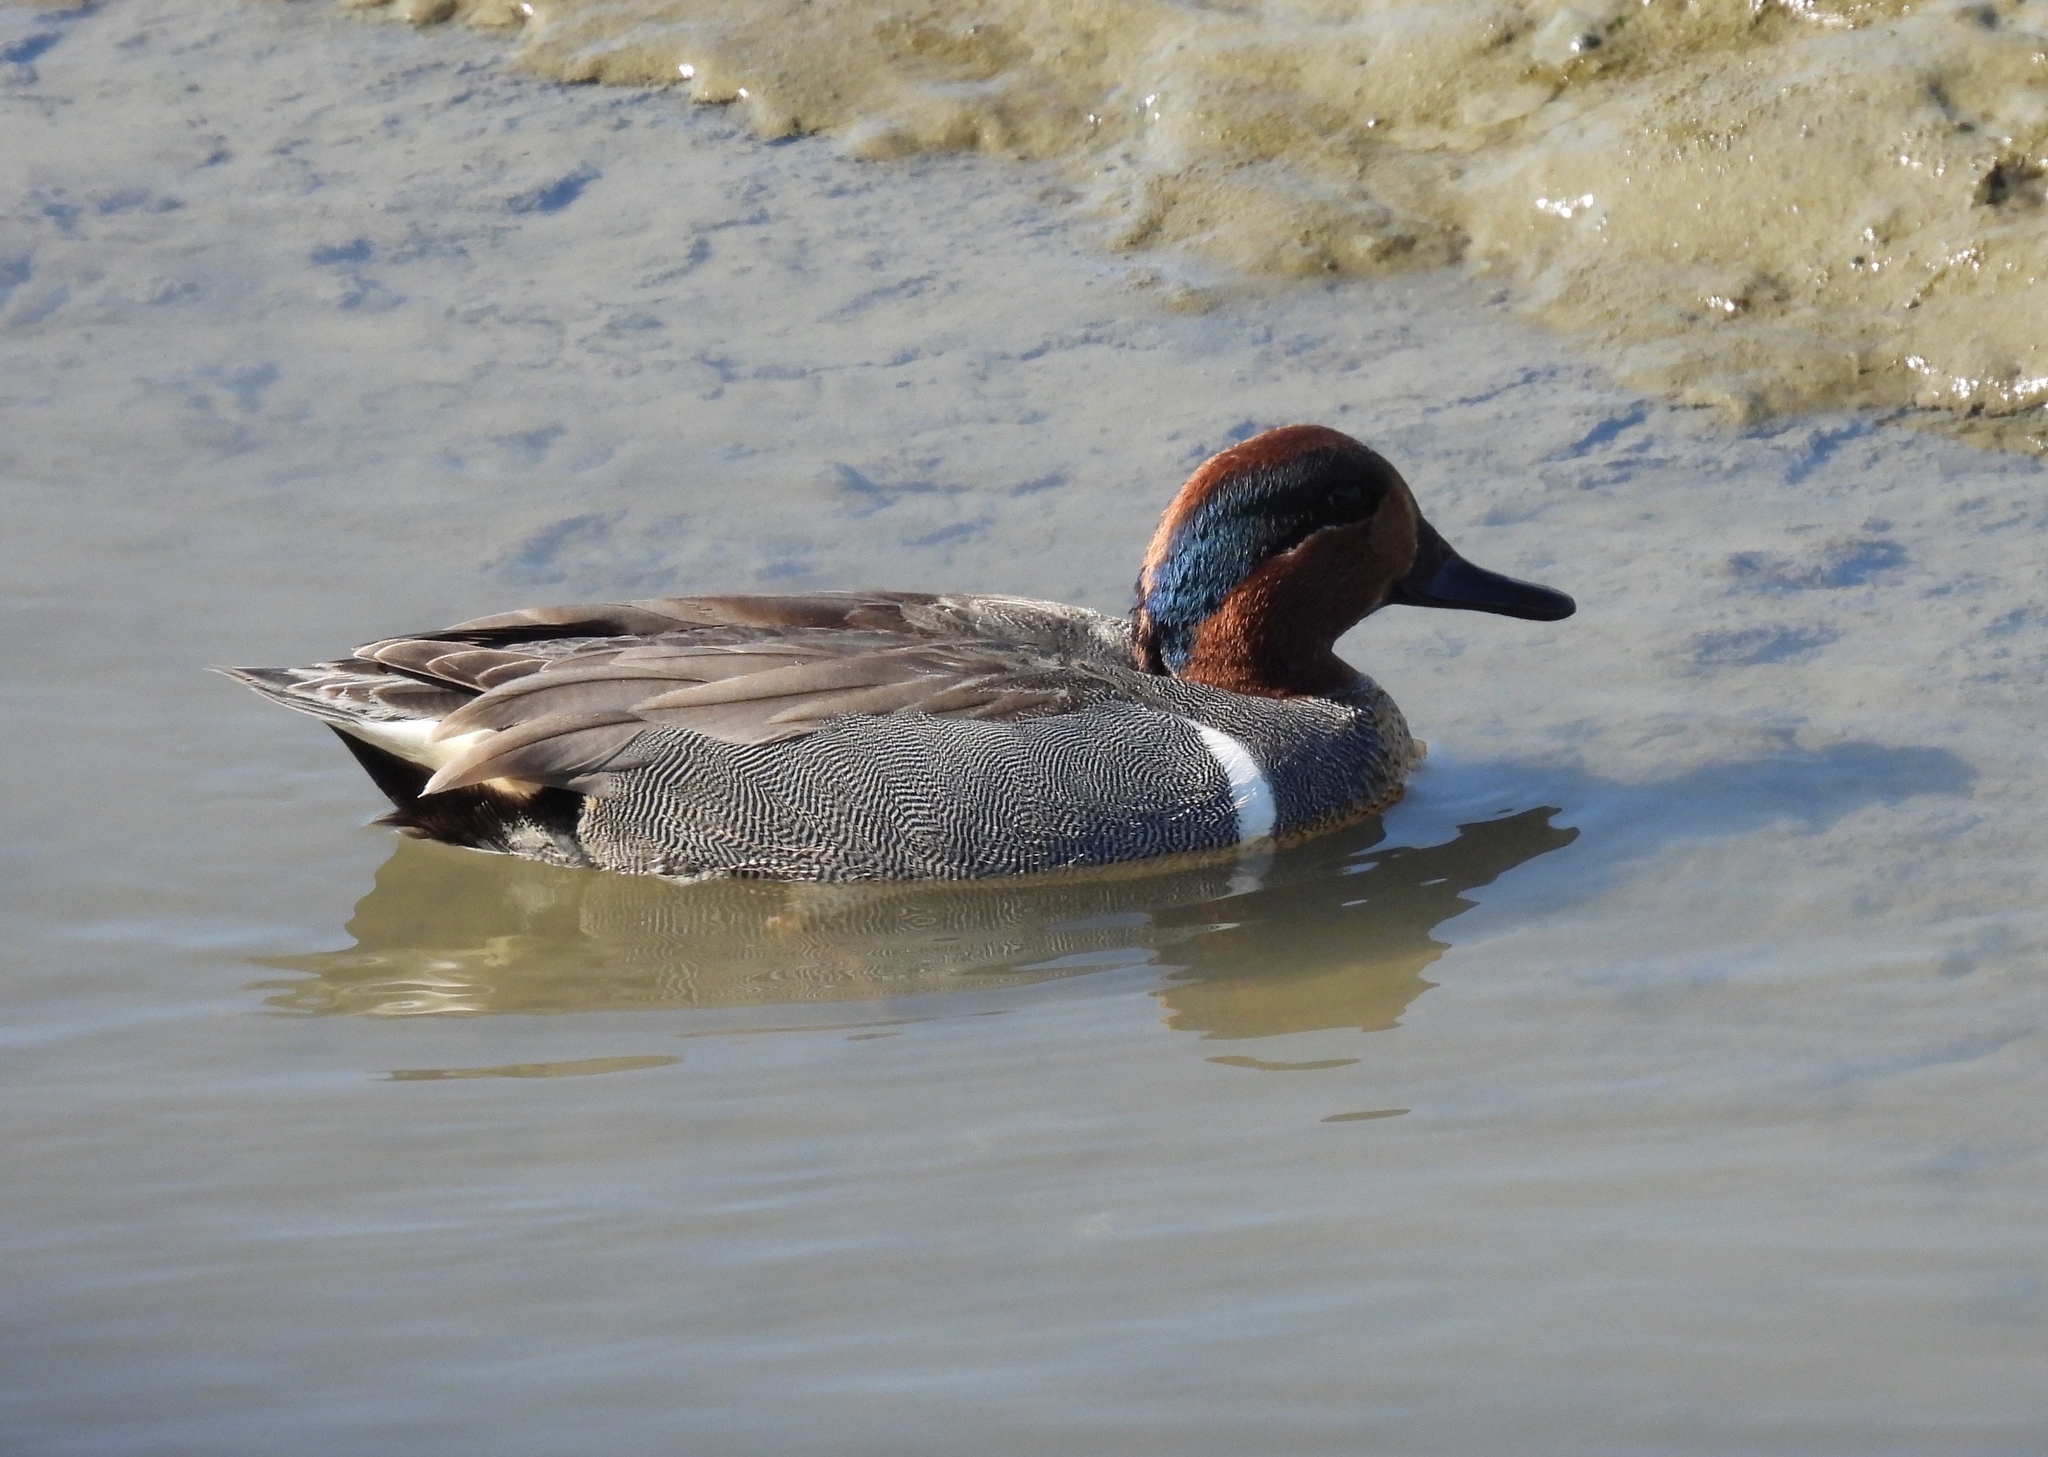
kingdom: Animalia
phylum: Chordata
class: Aves
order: Anseriformes
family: Anatidae
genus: Anas
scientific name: Anas crecca
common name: Eurasian teal
